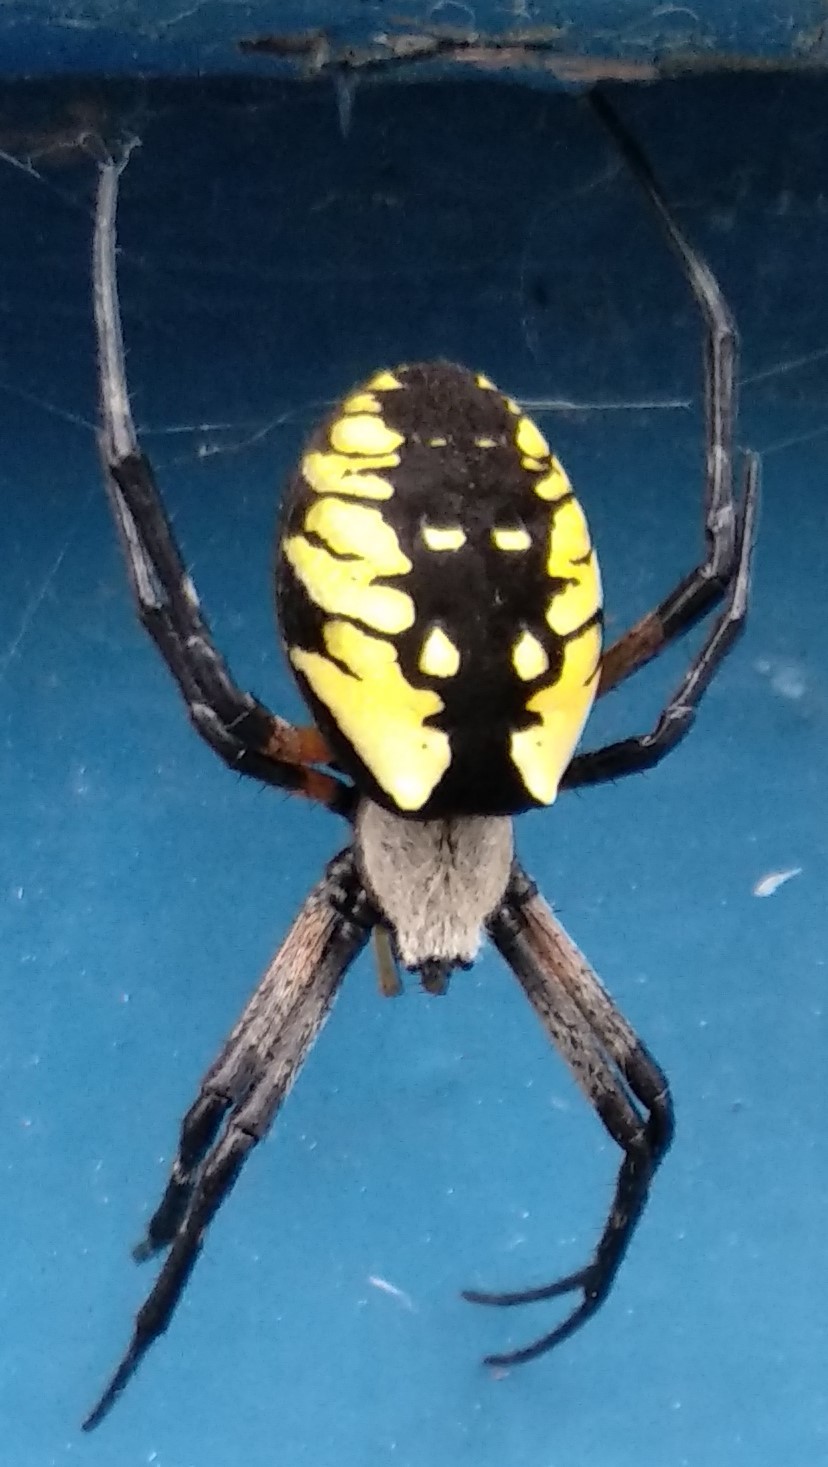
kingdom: Animalia
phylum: Arthropoda
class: Arachnida
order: Araneae
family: Araneidae
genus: Argiope
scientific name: Argiope aurantia
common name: Orb weavers
